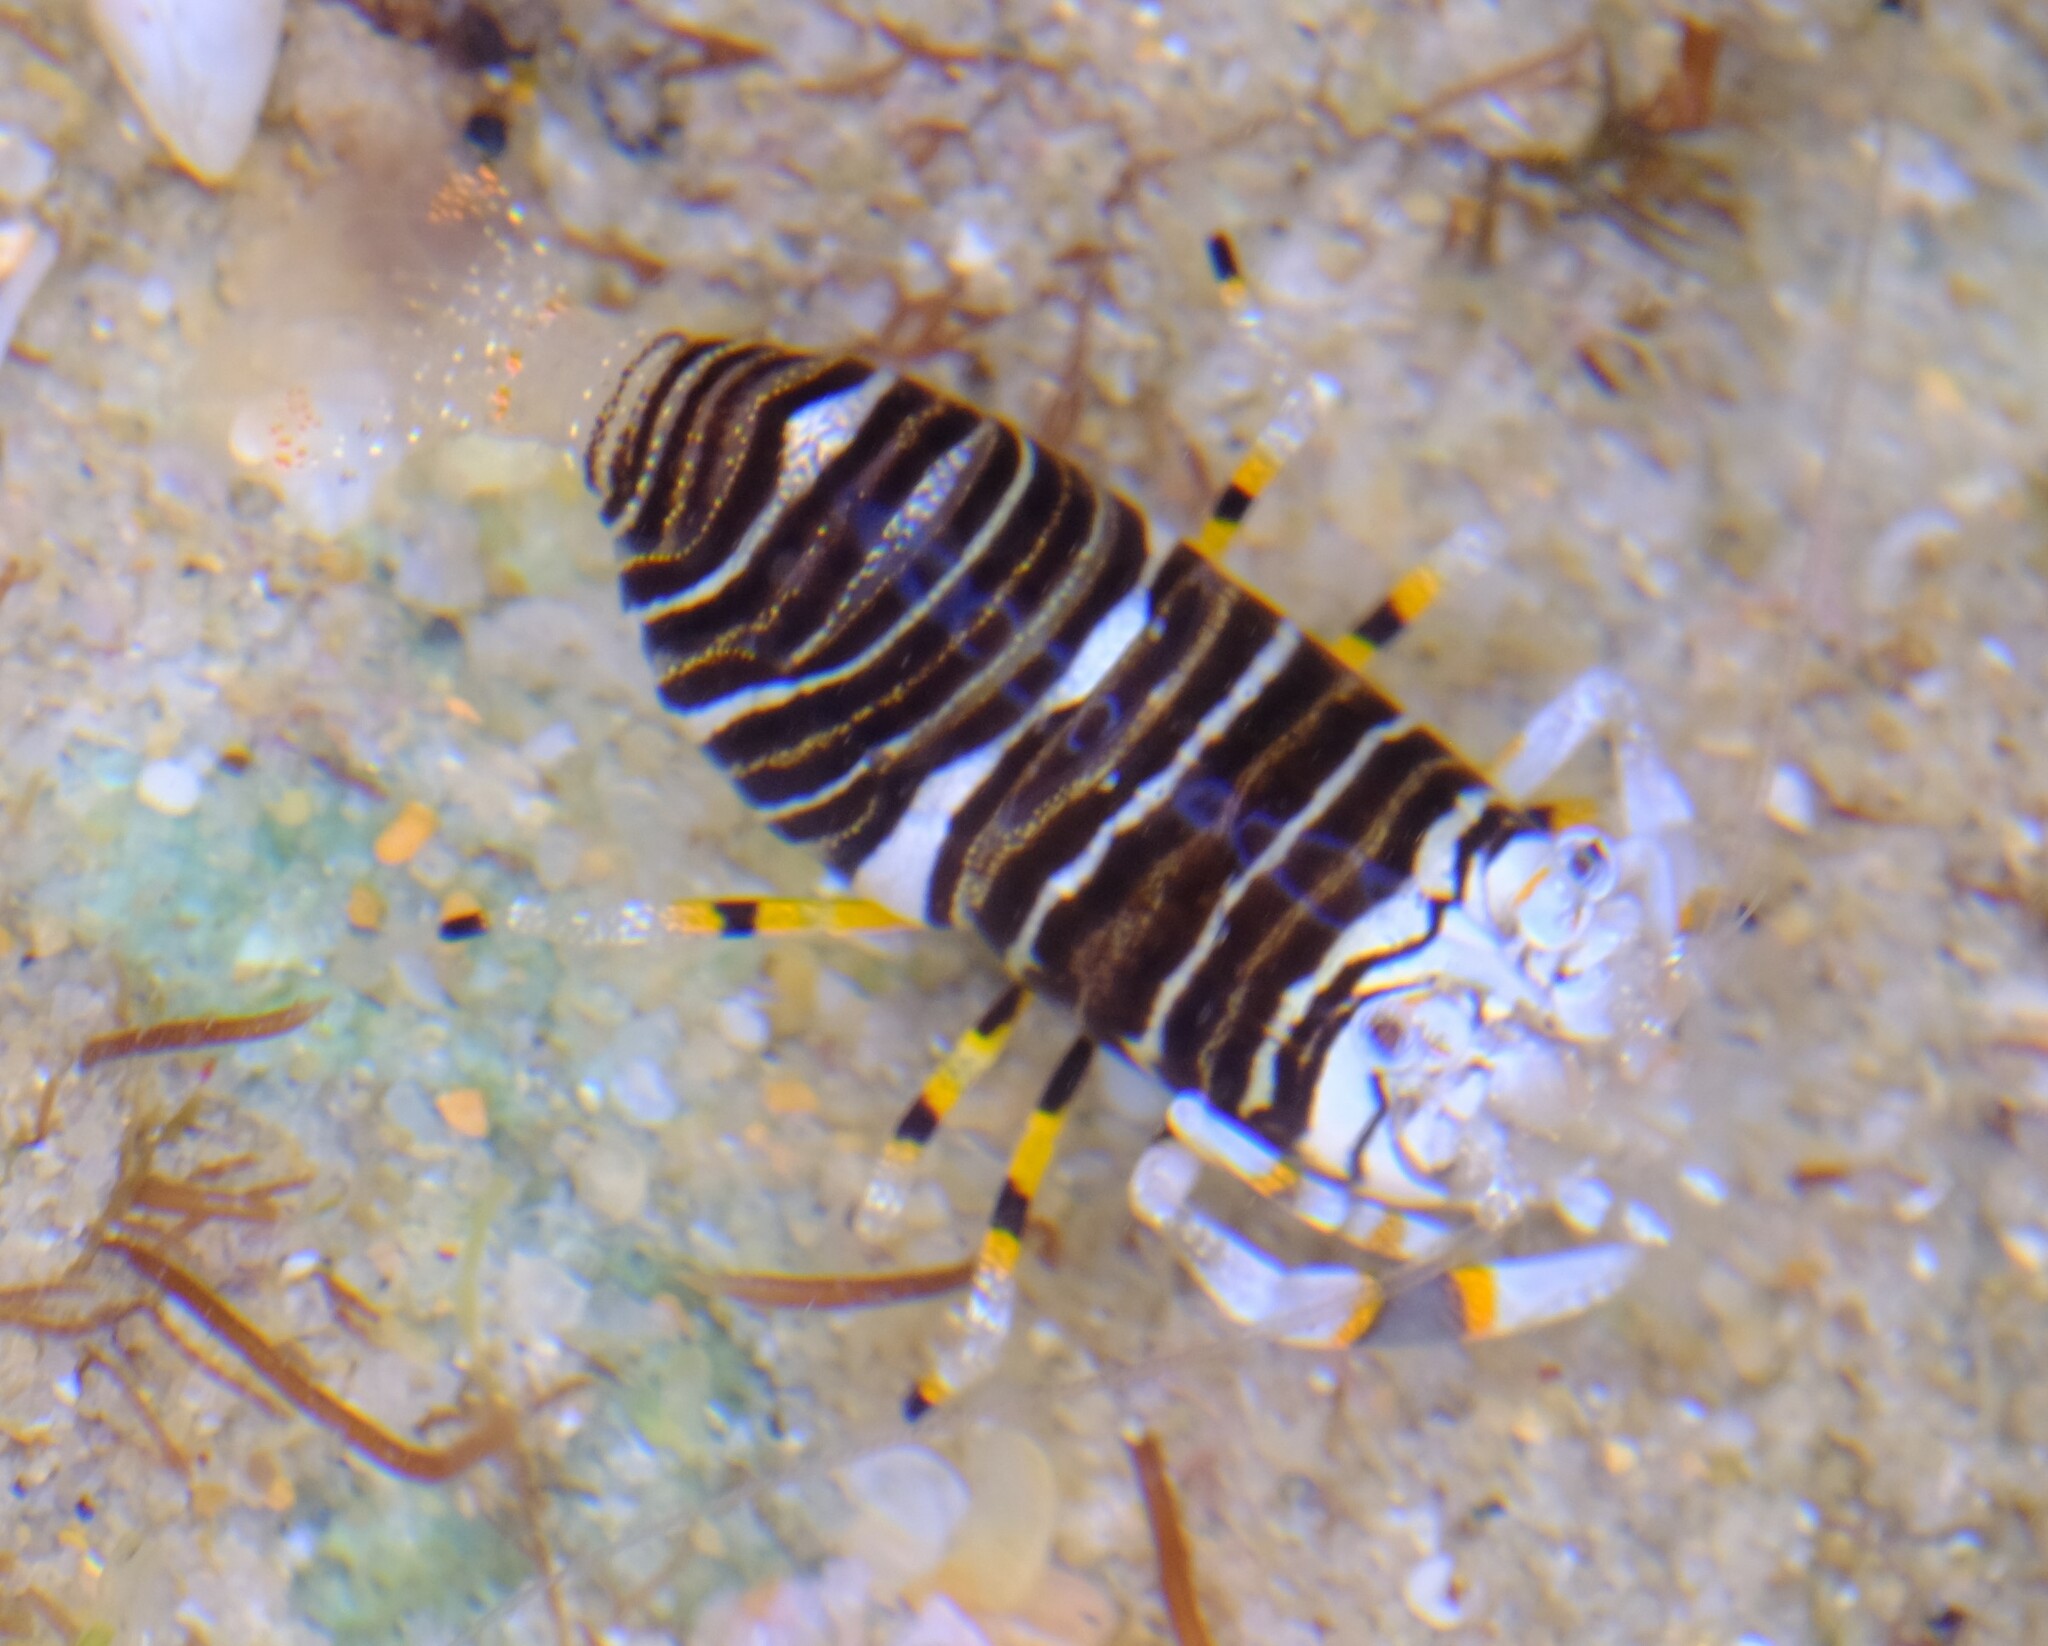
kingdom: Animalia
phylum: Arthropoda
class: Malacostraca
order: Decapoda
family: Palaemonidae
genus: Gnathophyllum
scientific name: Gnathophyllum americanum
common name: Bumblebee shrimp
